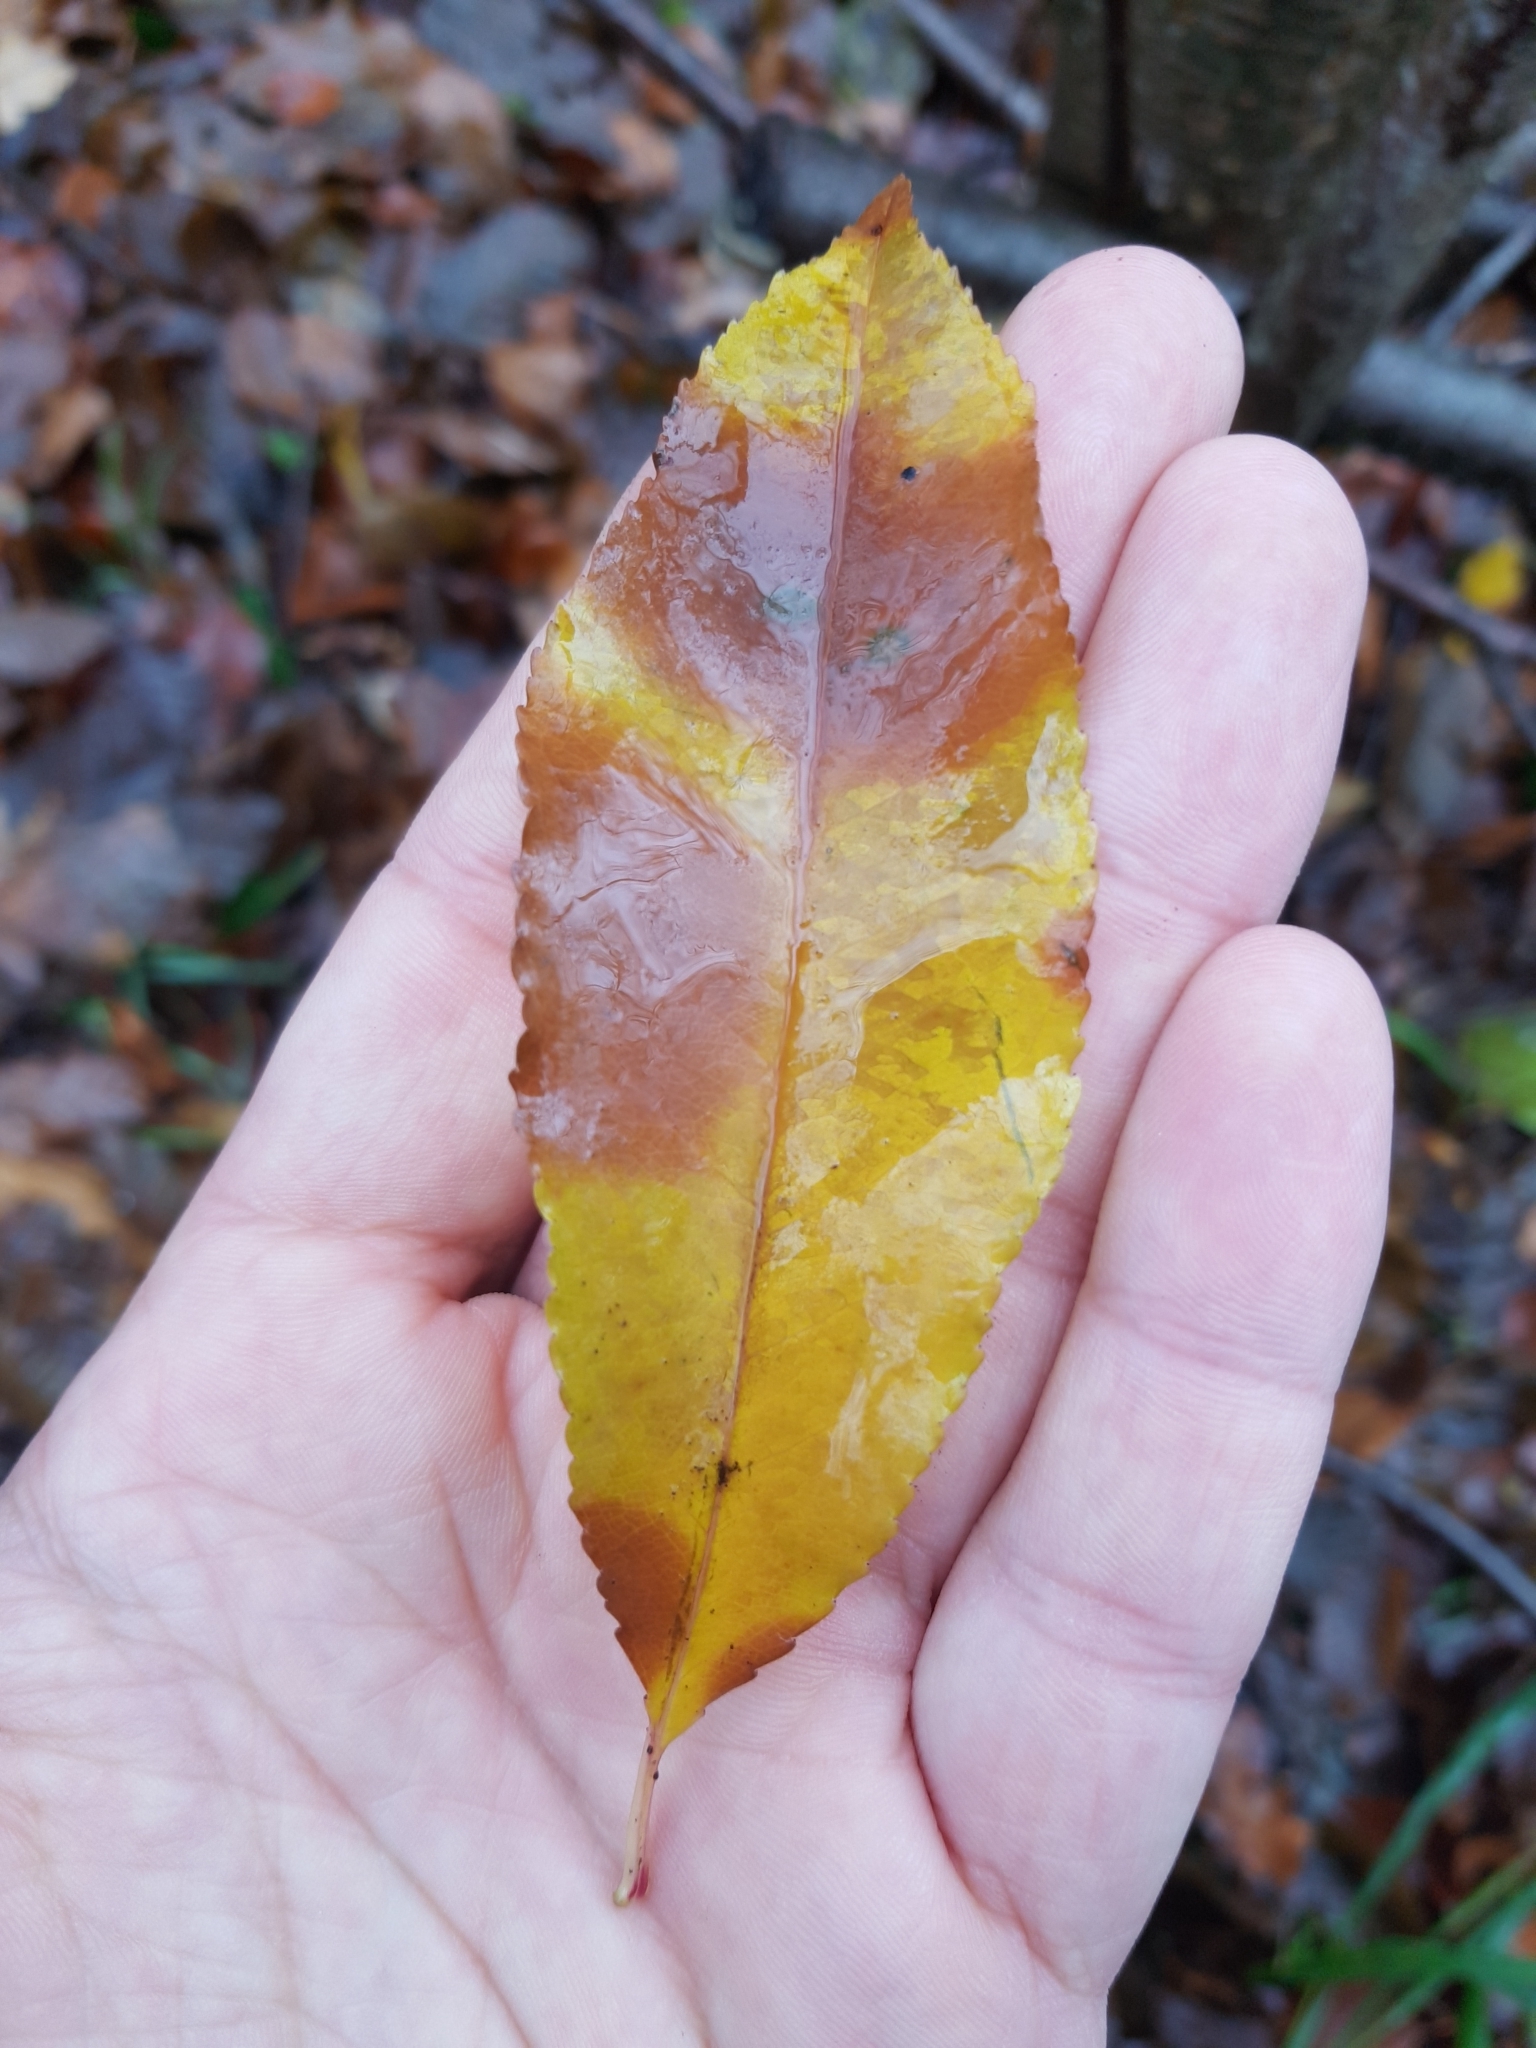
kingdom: Plantae
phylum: Tracheophyta
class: Magnoliopsida
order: Rosales
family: Rosaceae
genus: Prunus
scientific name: Prunus serotina
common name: Black cherry
